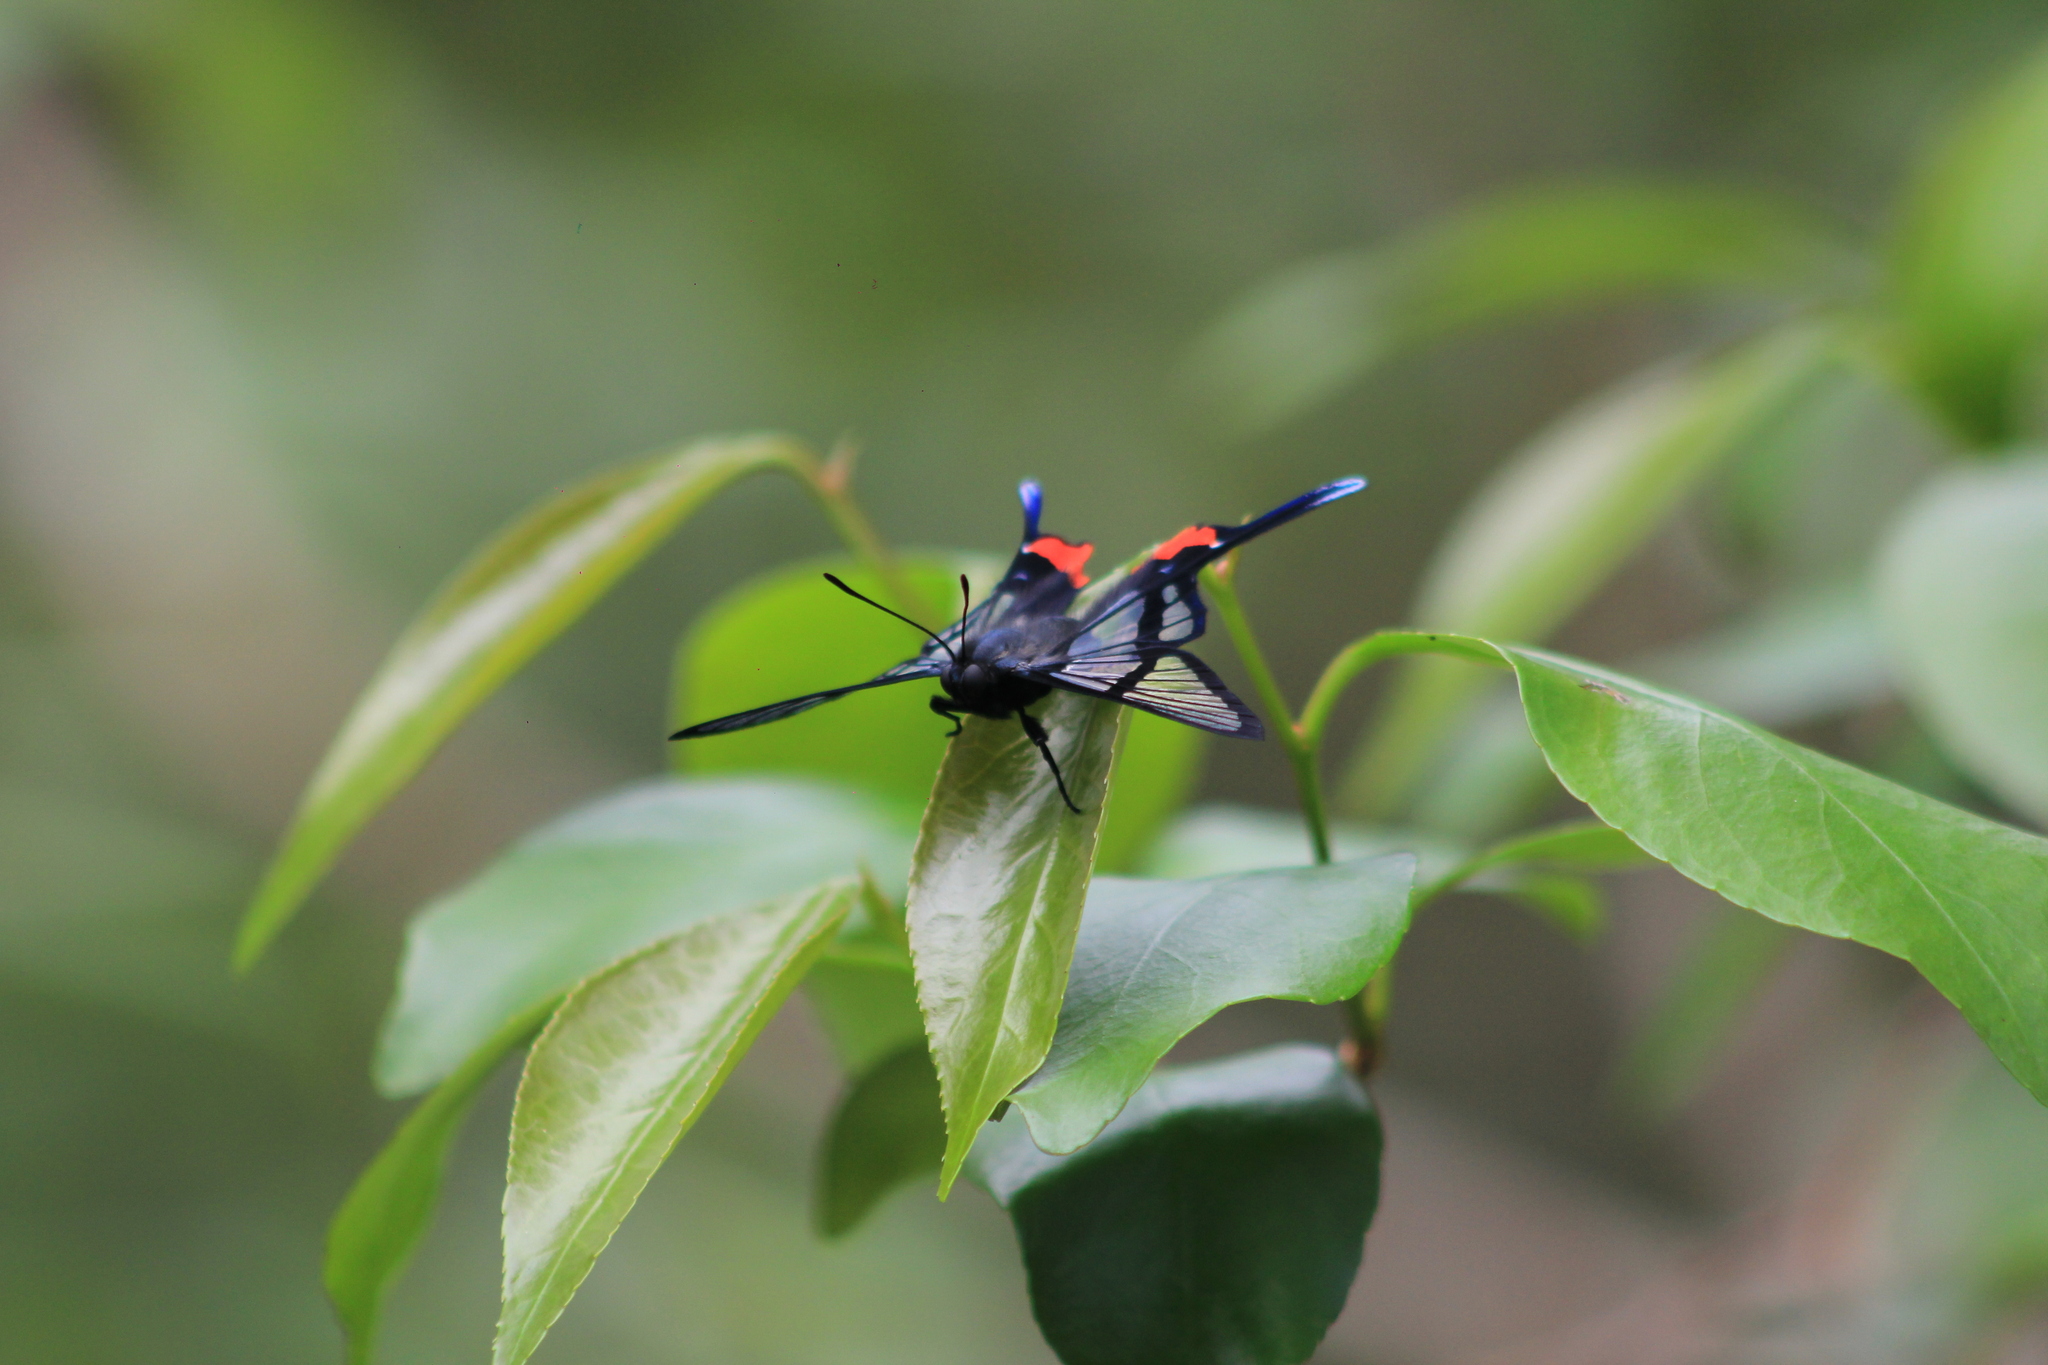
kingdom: Animalia
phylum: Arthropoda
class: Insecta
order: Lepidoptera
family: Riodinidae
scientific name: Riodinidae
